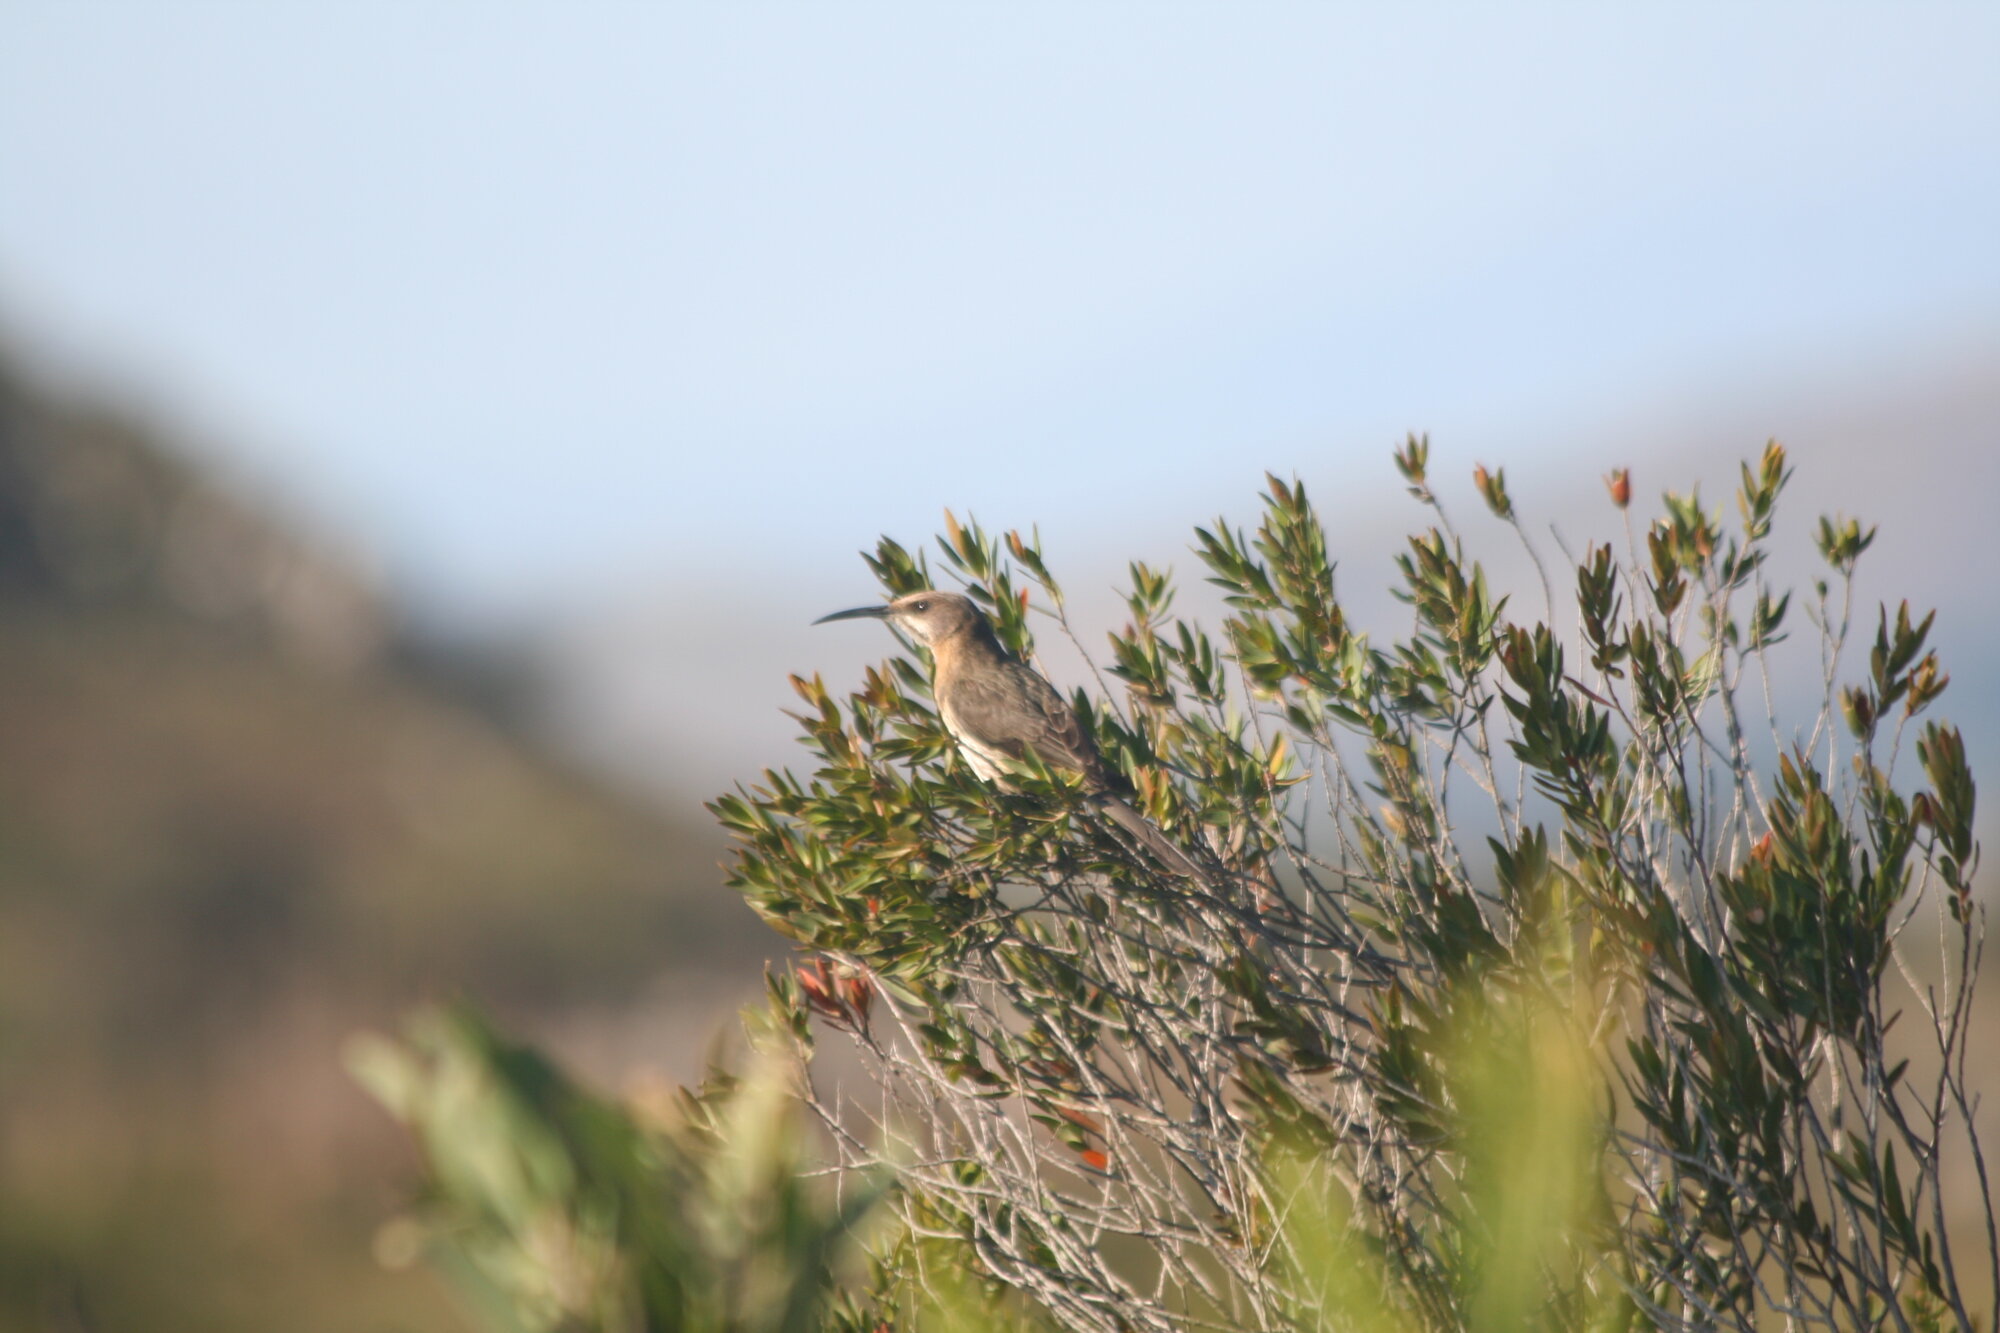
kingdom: Animalia
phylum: Chordata
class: Aves
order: Passeriformes
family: Promeropidae
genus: Promerops
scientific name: Promerops cafer
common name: Cape sugarbird
